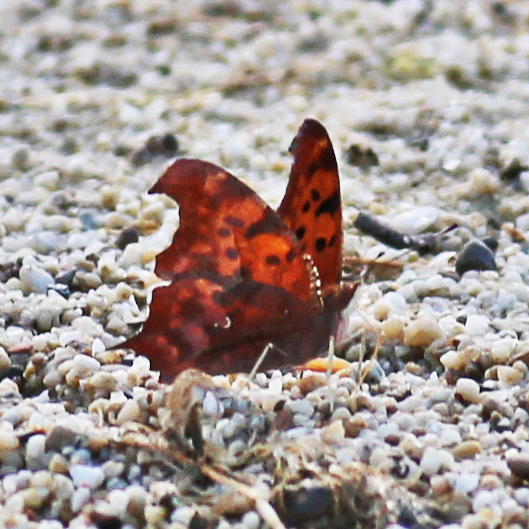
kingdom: Animalia
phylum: Arthropoda
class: Insecta
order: Lepidoptera
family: Nymphalidae
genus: Polygonia
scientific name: Polygonia interrogationis
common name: Question mark
